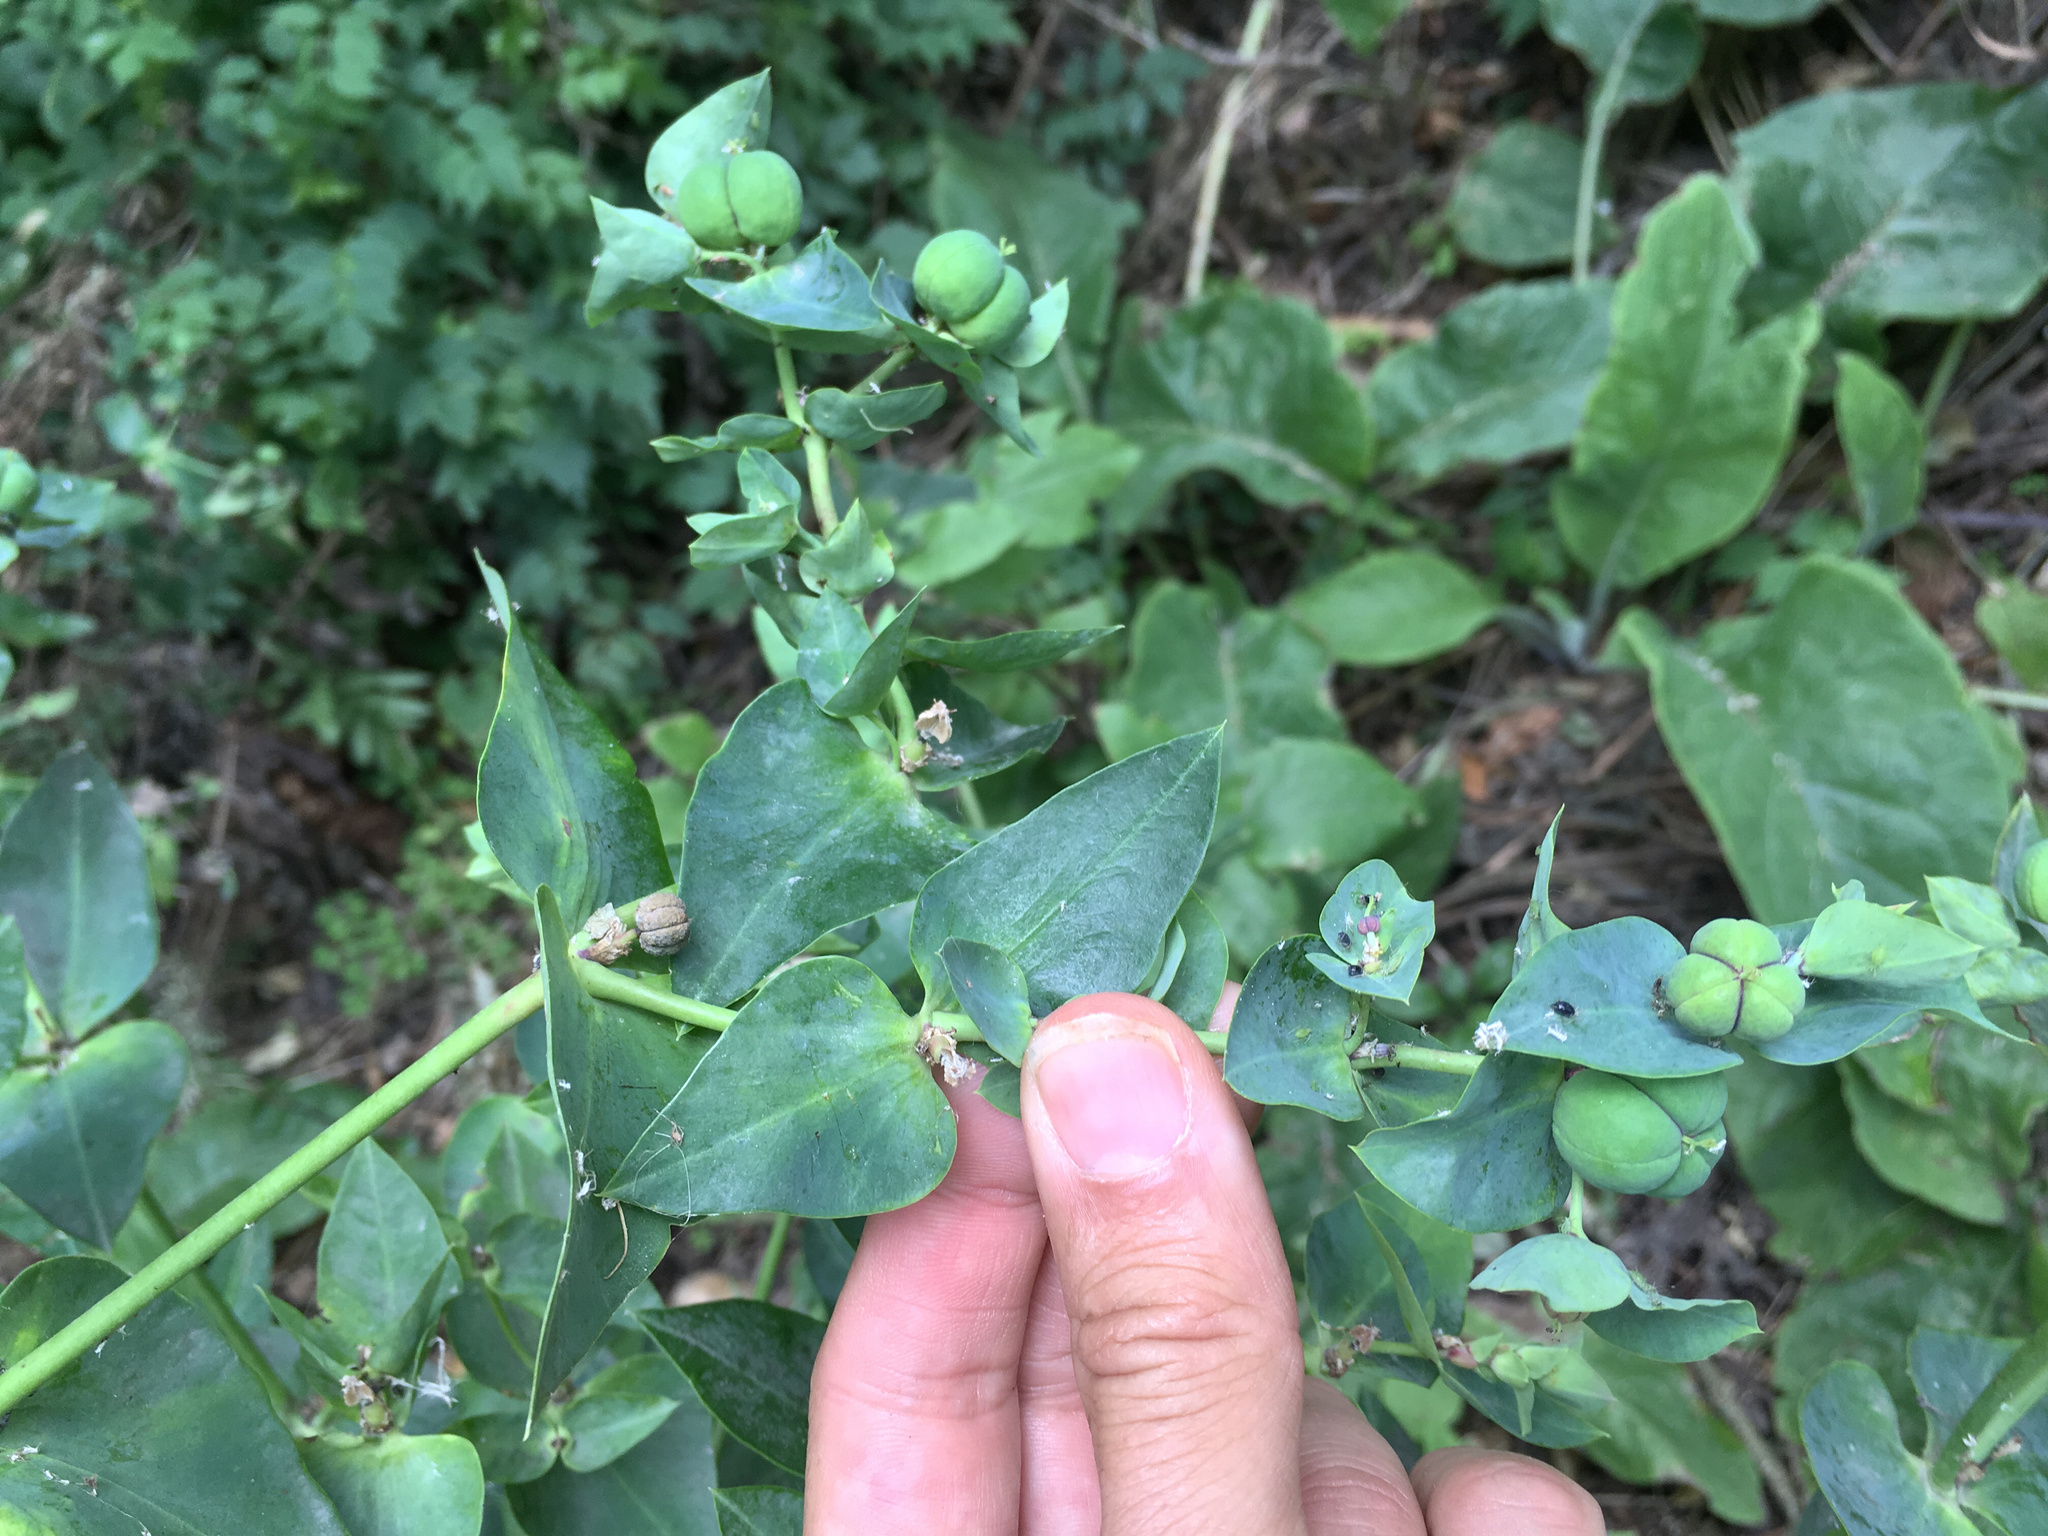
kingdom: Plantae
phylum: Tracheophyta
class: Magnoliopsida
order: Malpighiales
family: Euphorbiaceae
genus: Euphorbia
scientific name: Euphorbia lathyris
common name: Caper spurge
